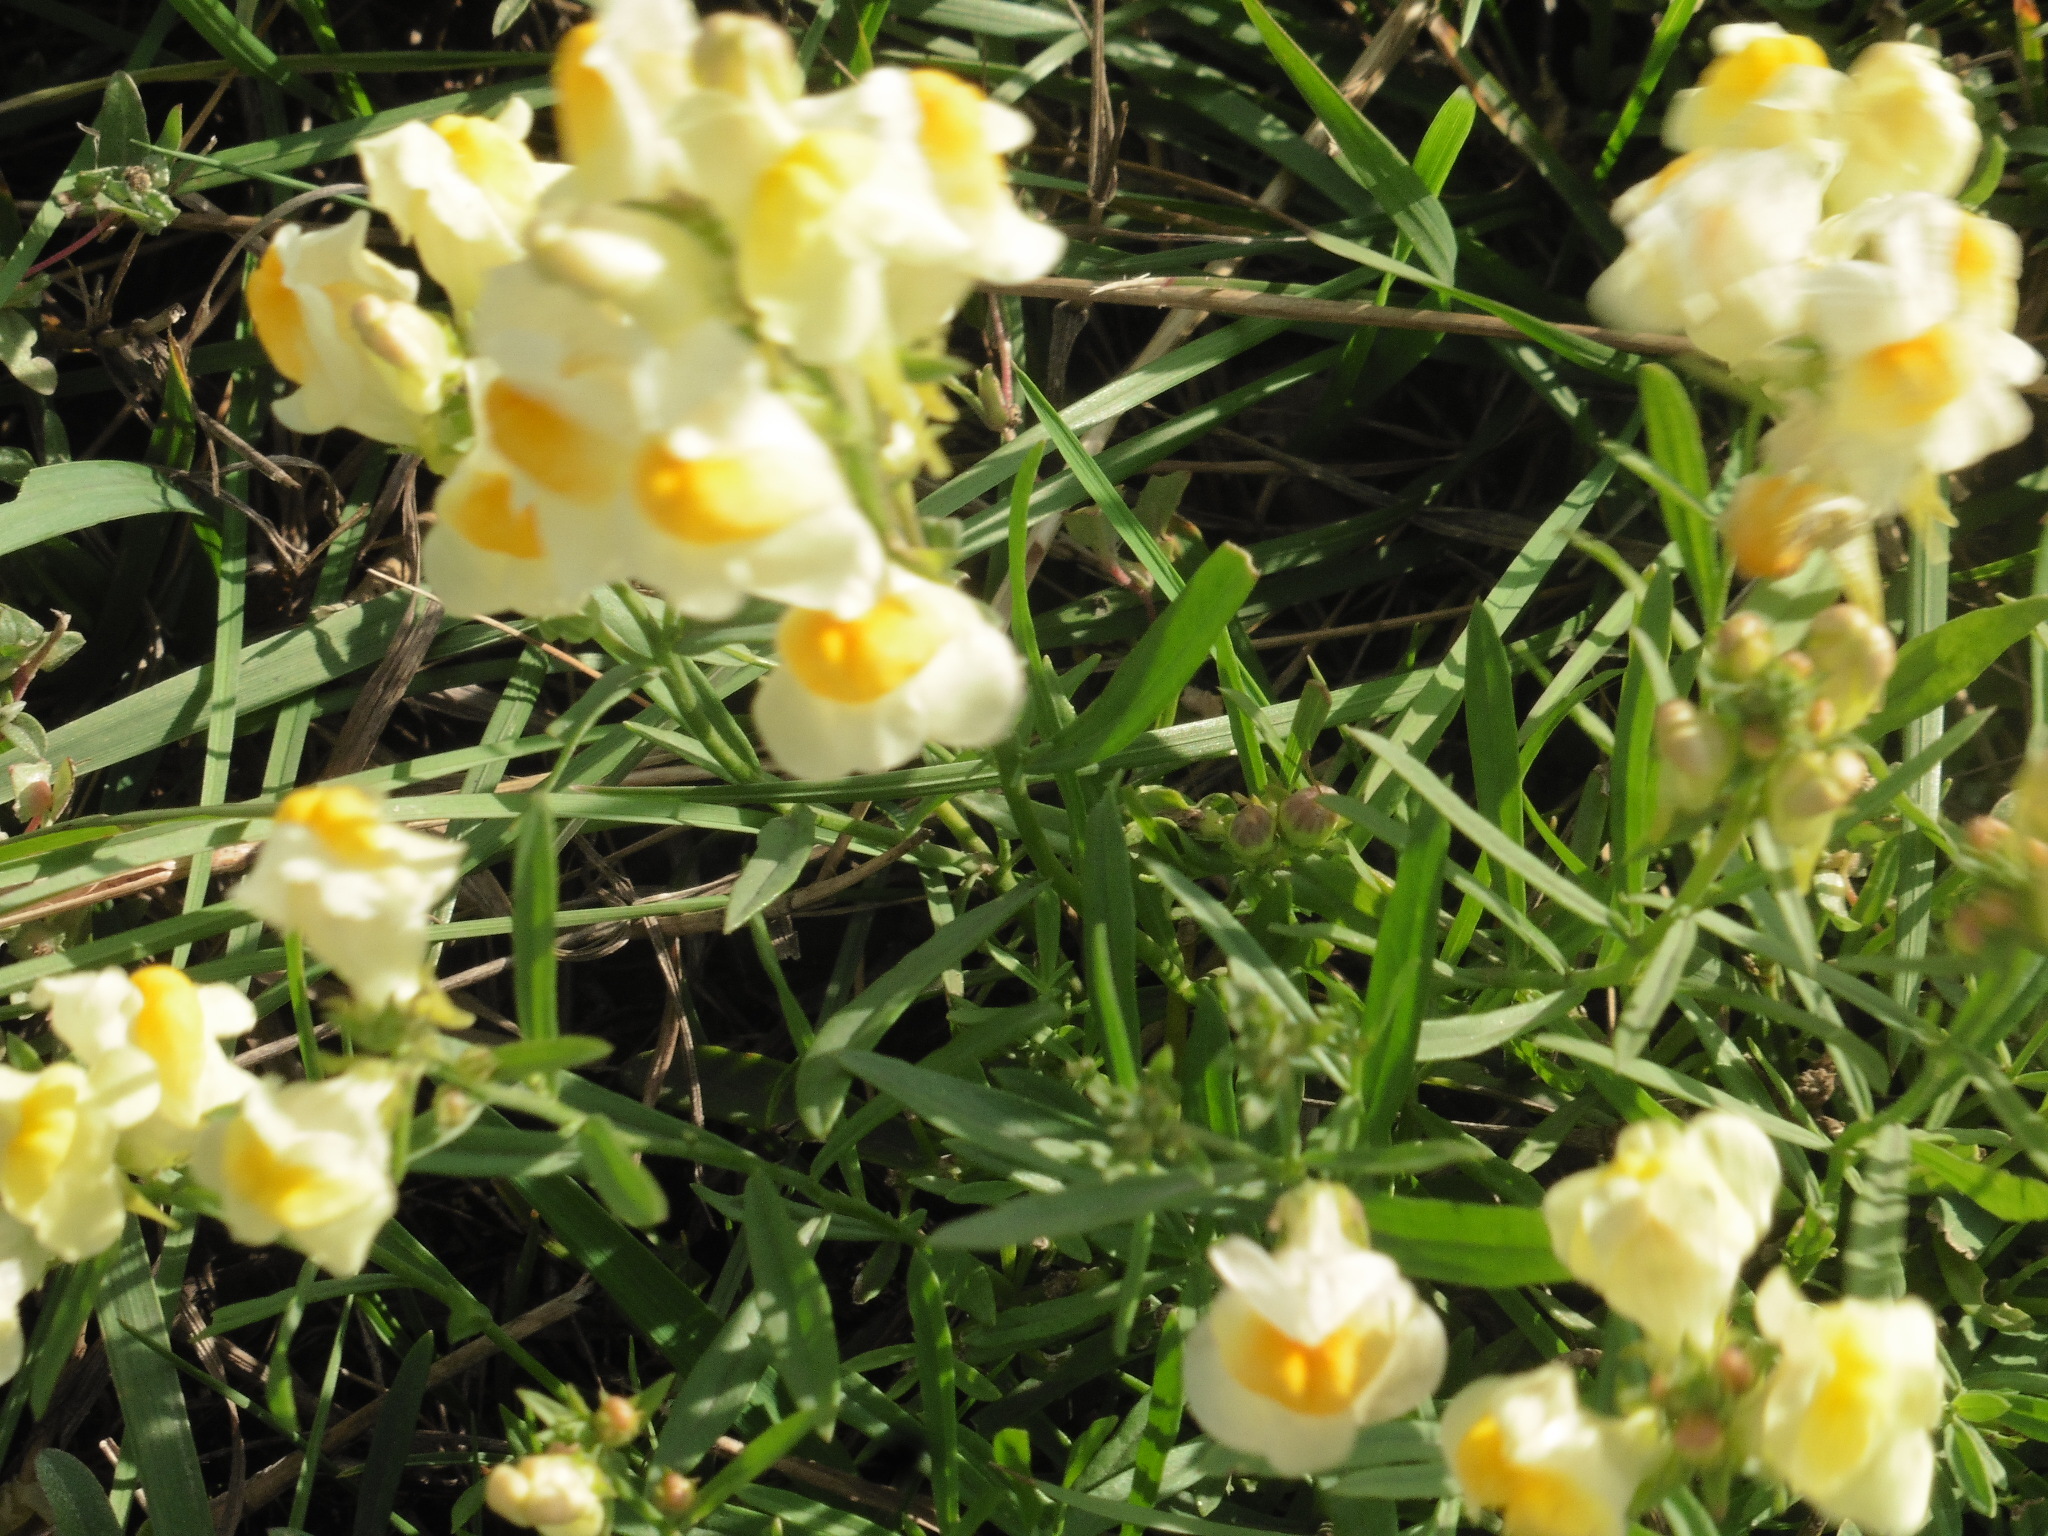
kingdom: Plantae
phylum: Tracheophyta
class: Magnoliopsida
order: Lamiales
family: Plantaginaceae
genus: Linaria
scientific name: Linaria vulgaris
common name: Butter and eggs
